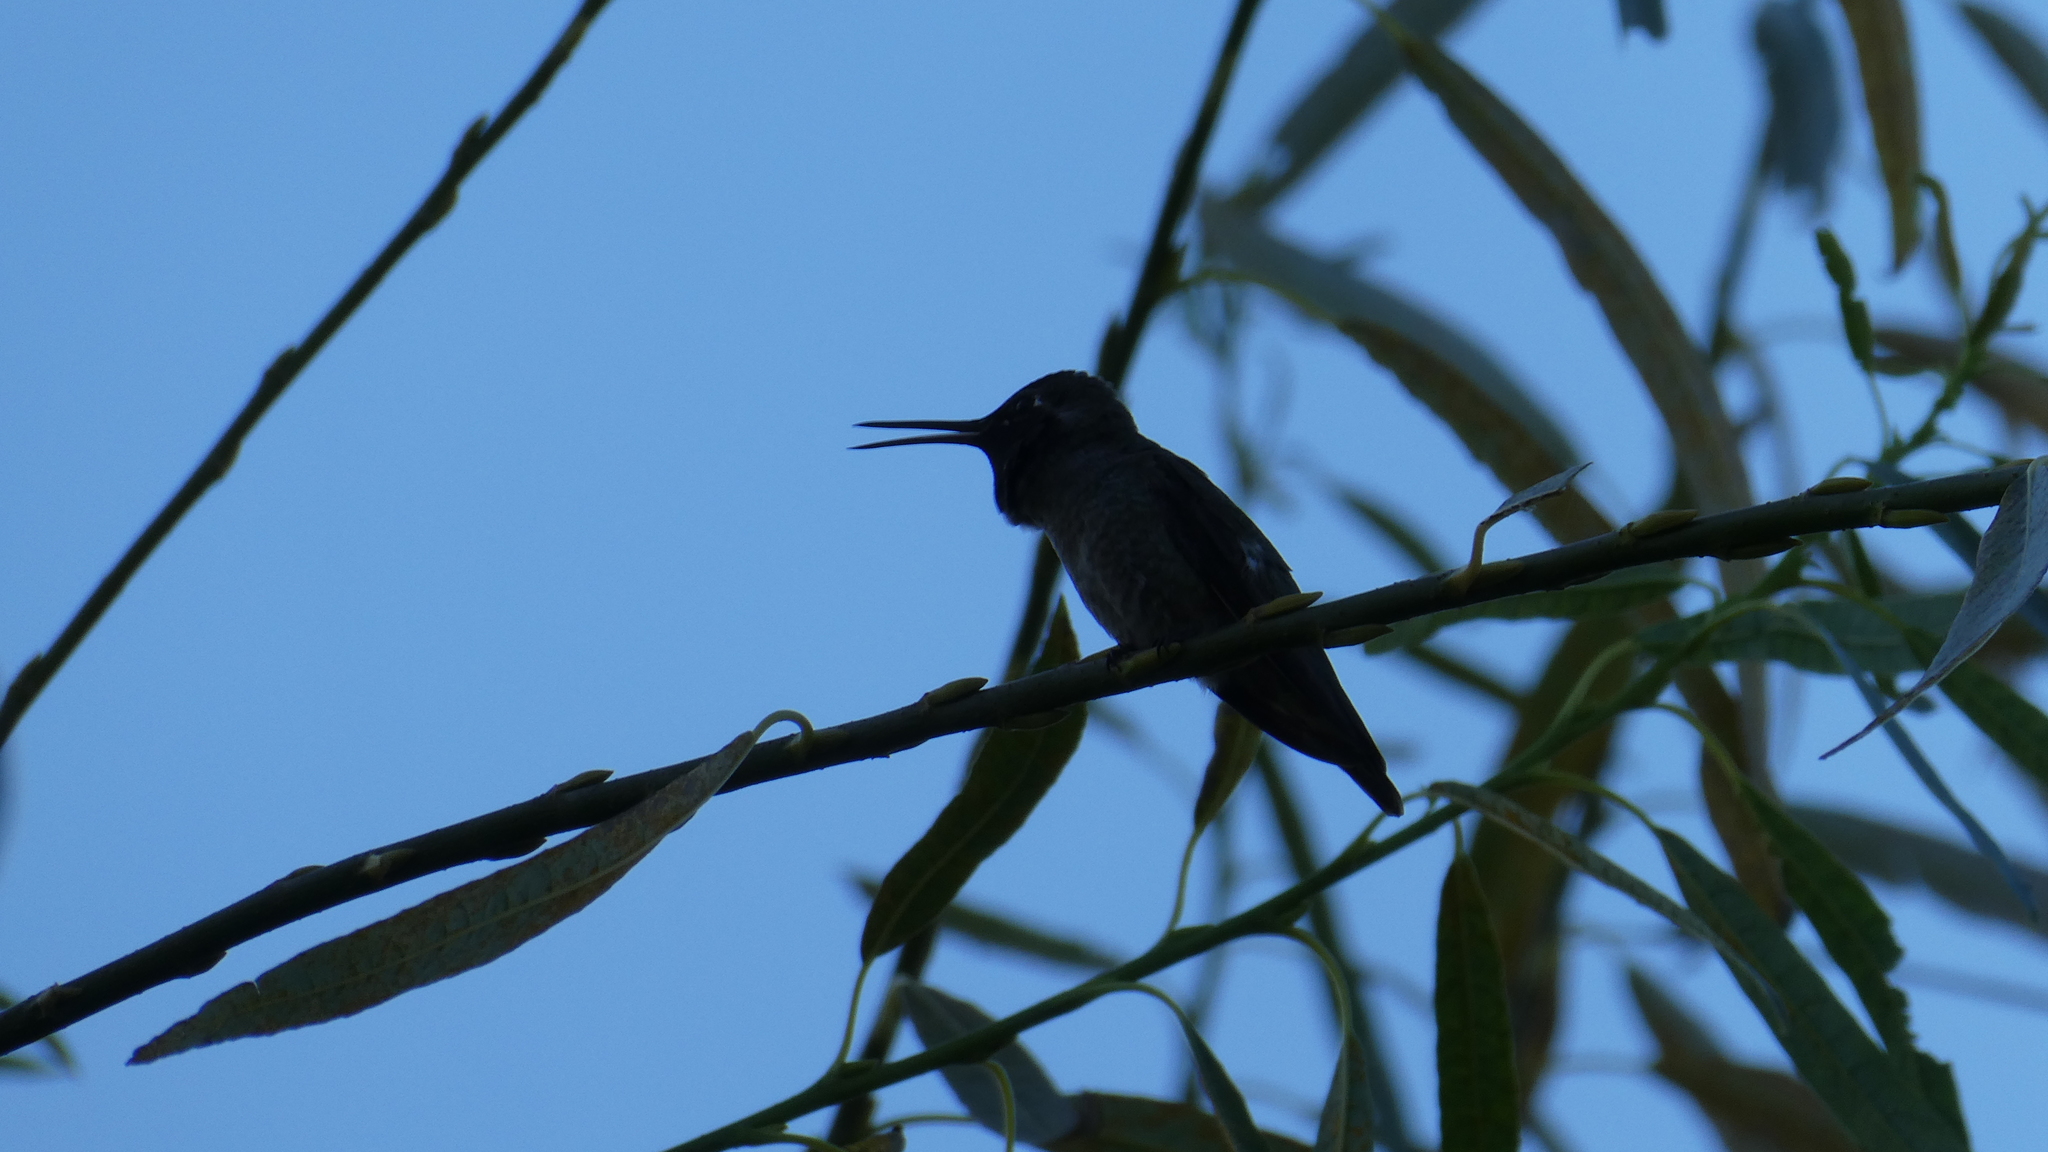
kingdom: Animalia
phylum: Chordata
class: Aves
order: Apodiformes
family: Trochilidae
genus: Calypte
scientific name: Calypte anna
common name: Anna's hummingbird
